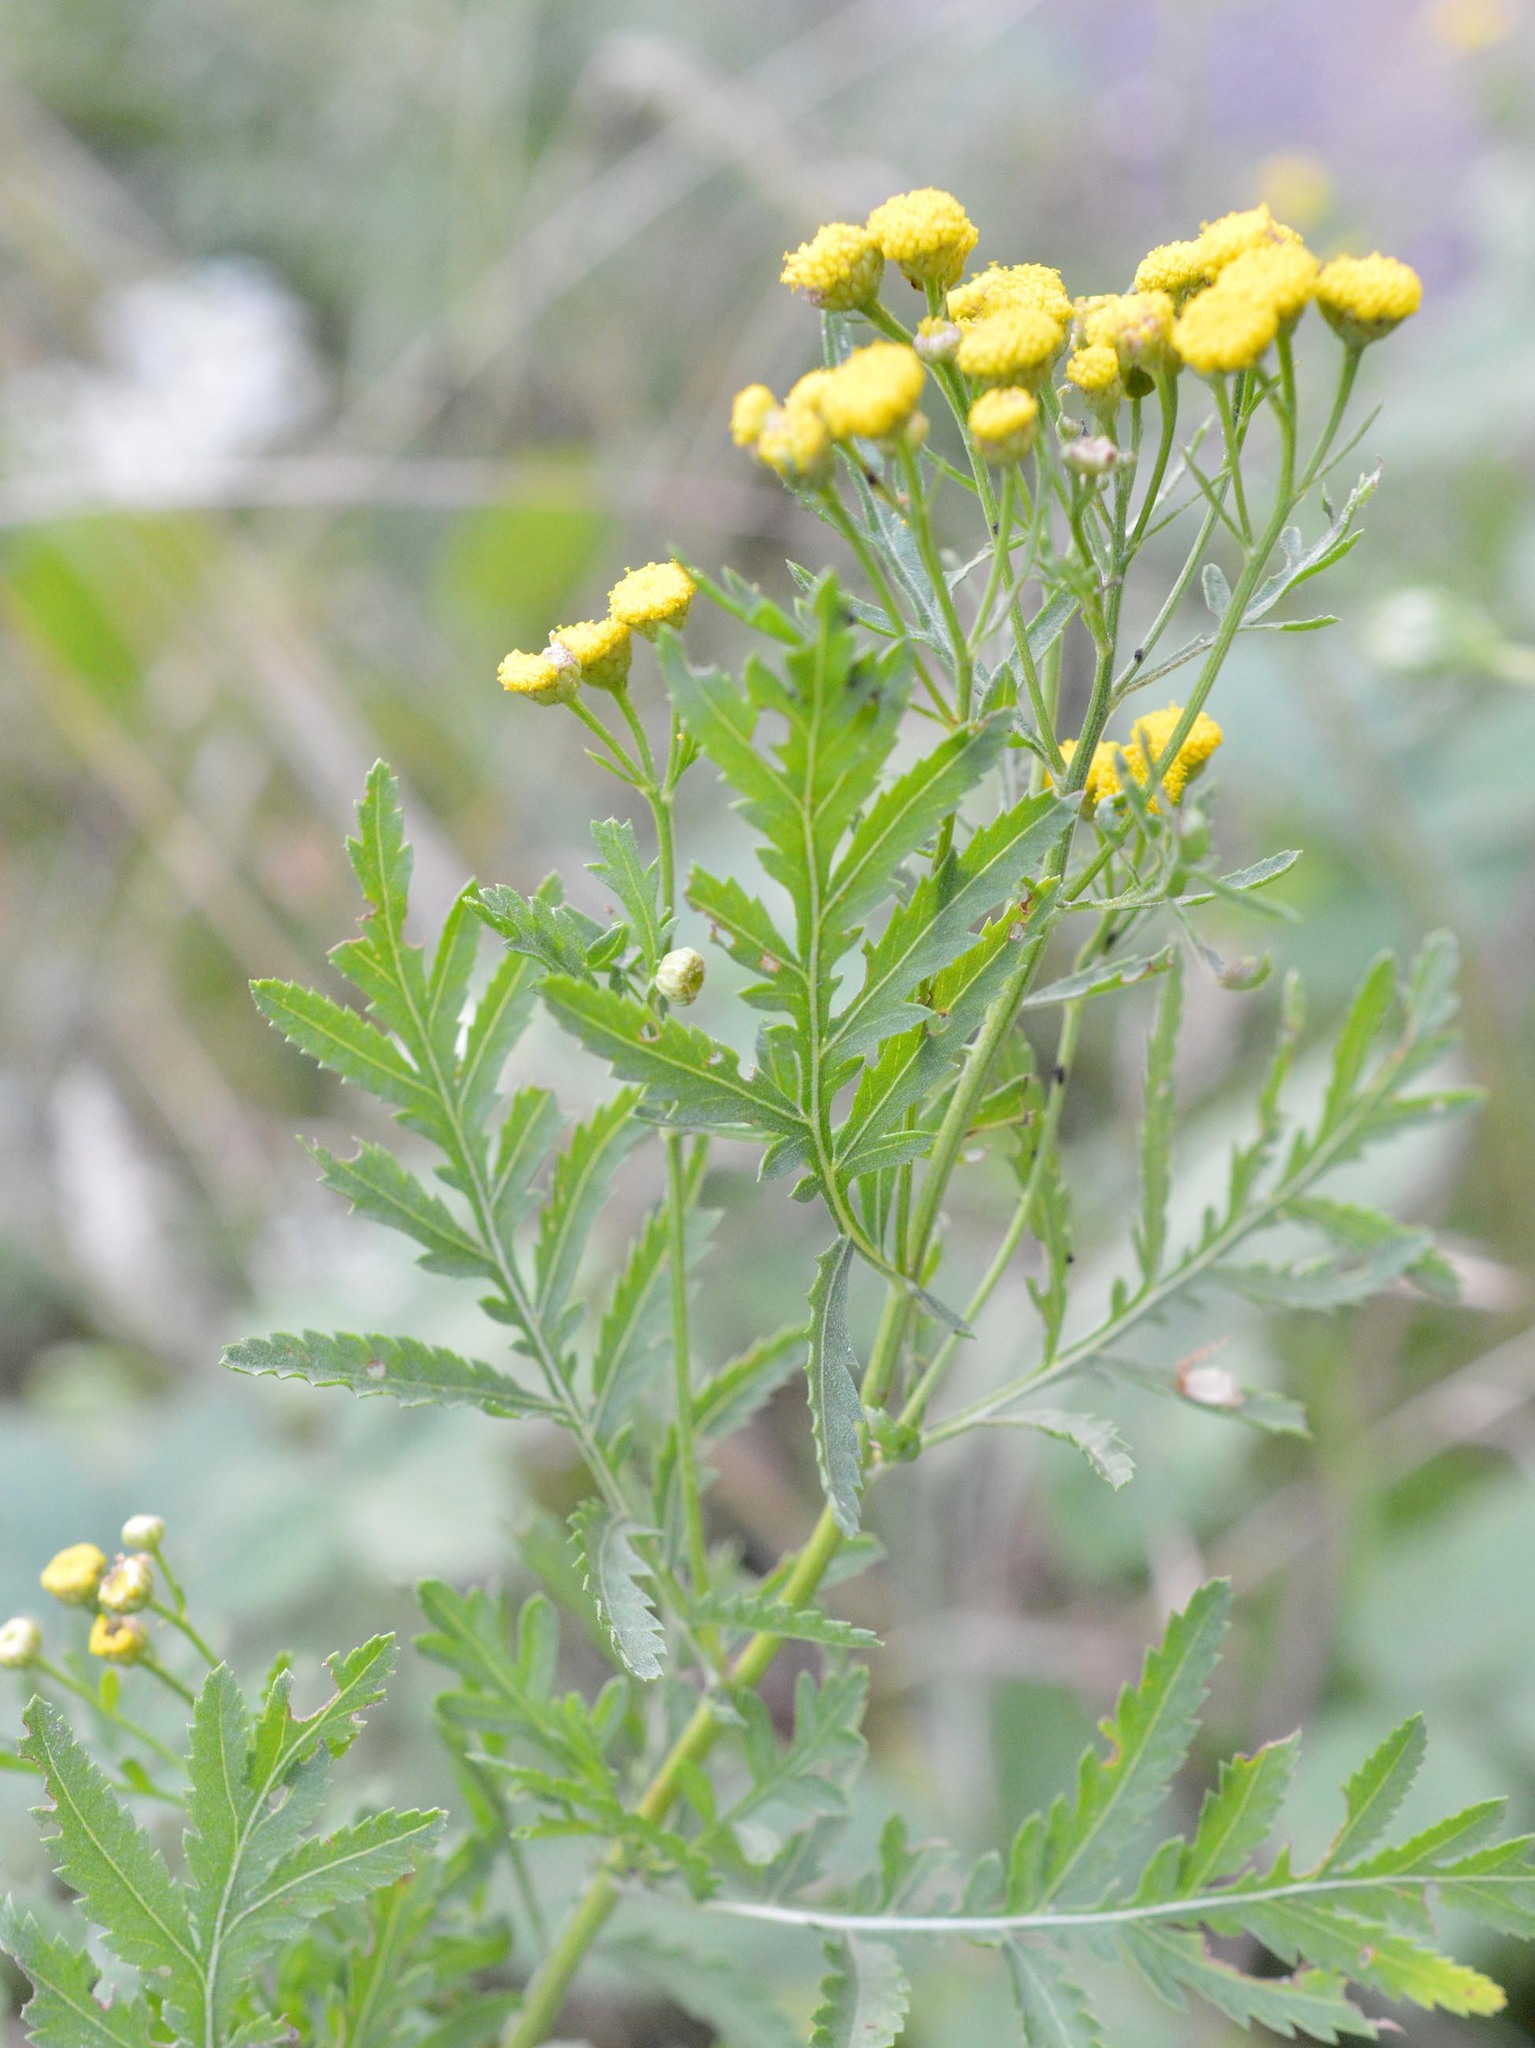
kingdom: Plantae
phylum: Tracheophyta
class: Magnoliopsida
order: Asterales
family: Asteraceae
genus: Tanacetum
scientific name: Tanacetum vulgare
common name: Common tansy
